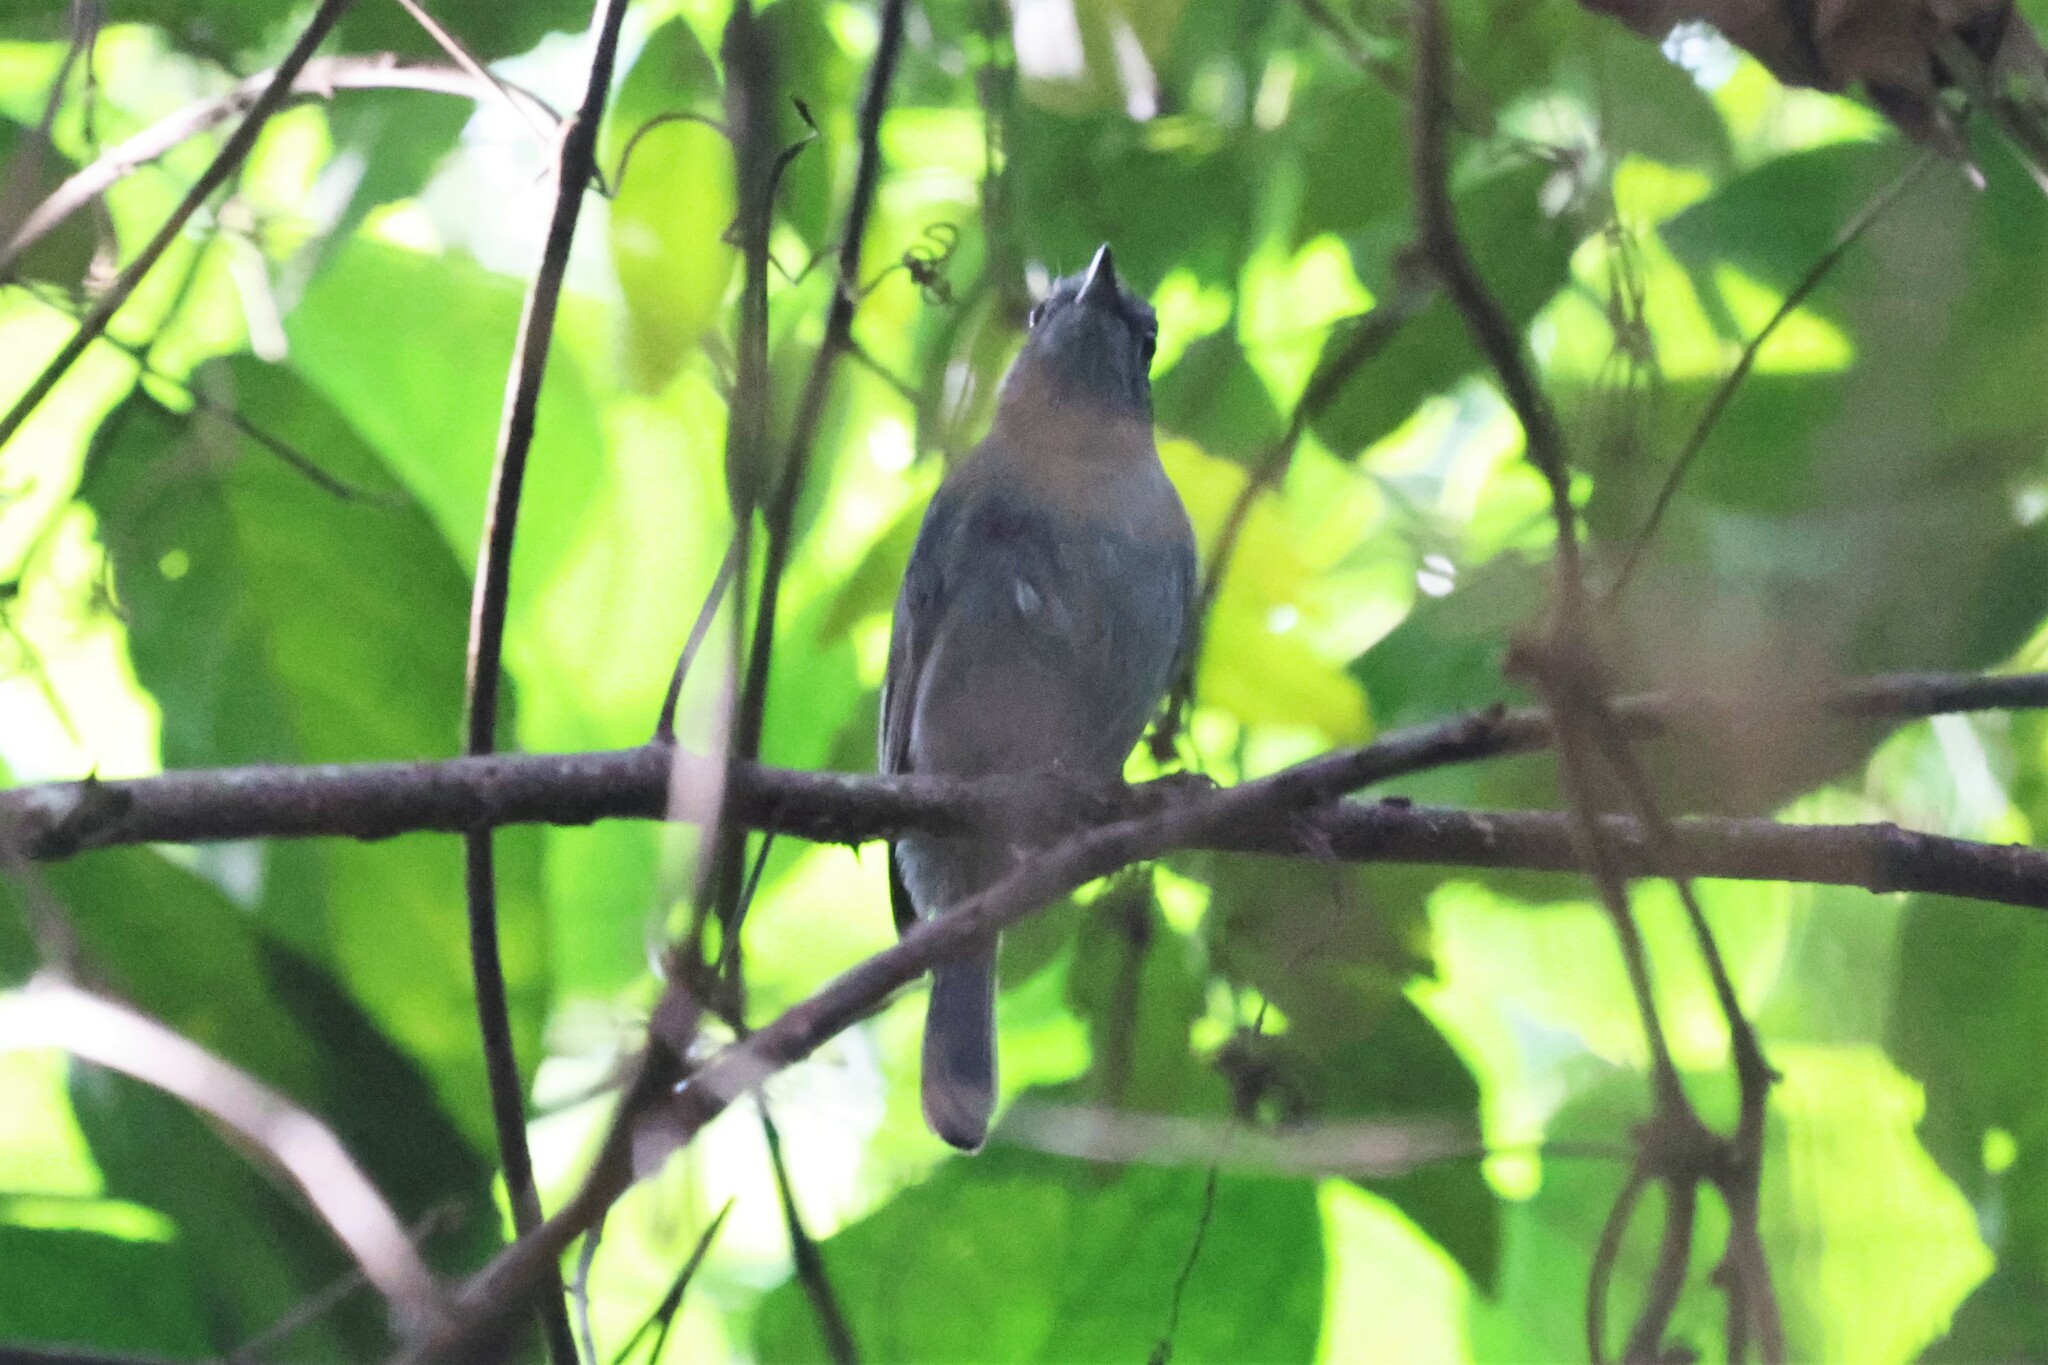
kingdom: Animalia
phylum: Chordata
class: Aves
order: Passeriformes
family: Muscicapidae
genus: Myioparus
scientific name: Myioparus griseigularis
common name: Grey-throated tit-flycatcher
